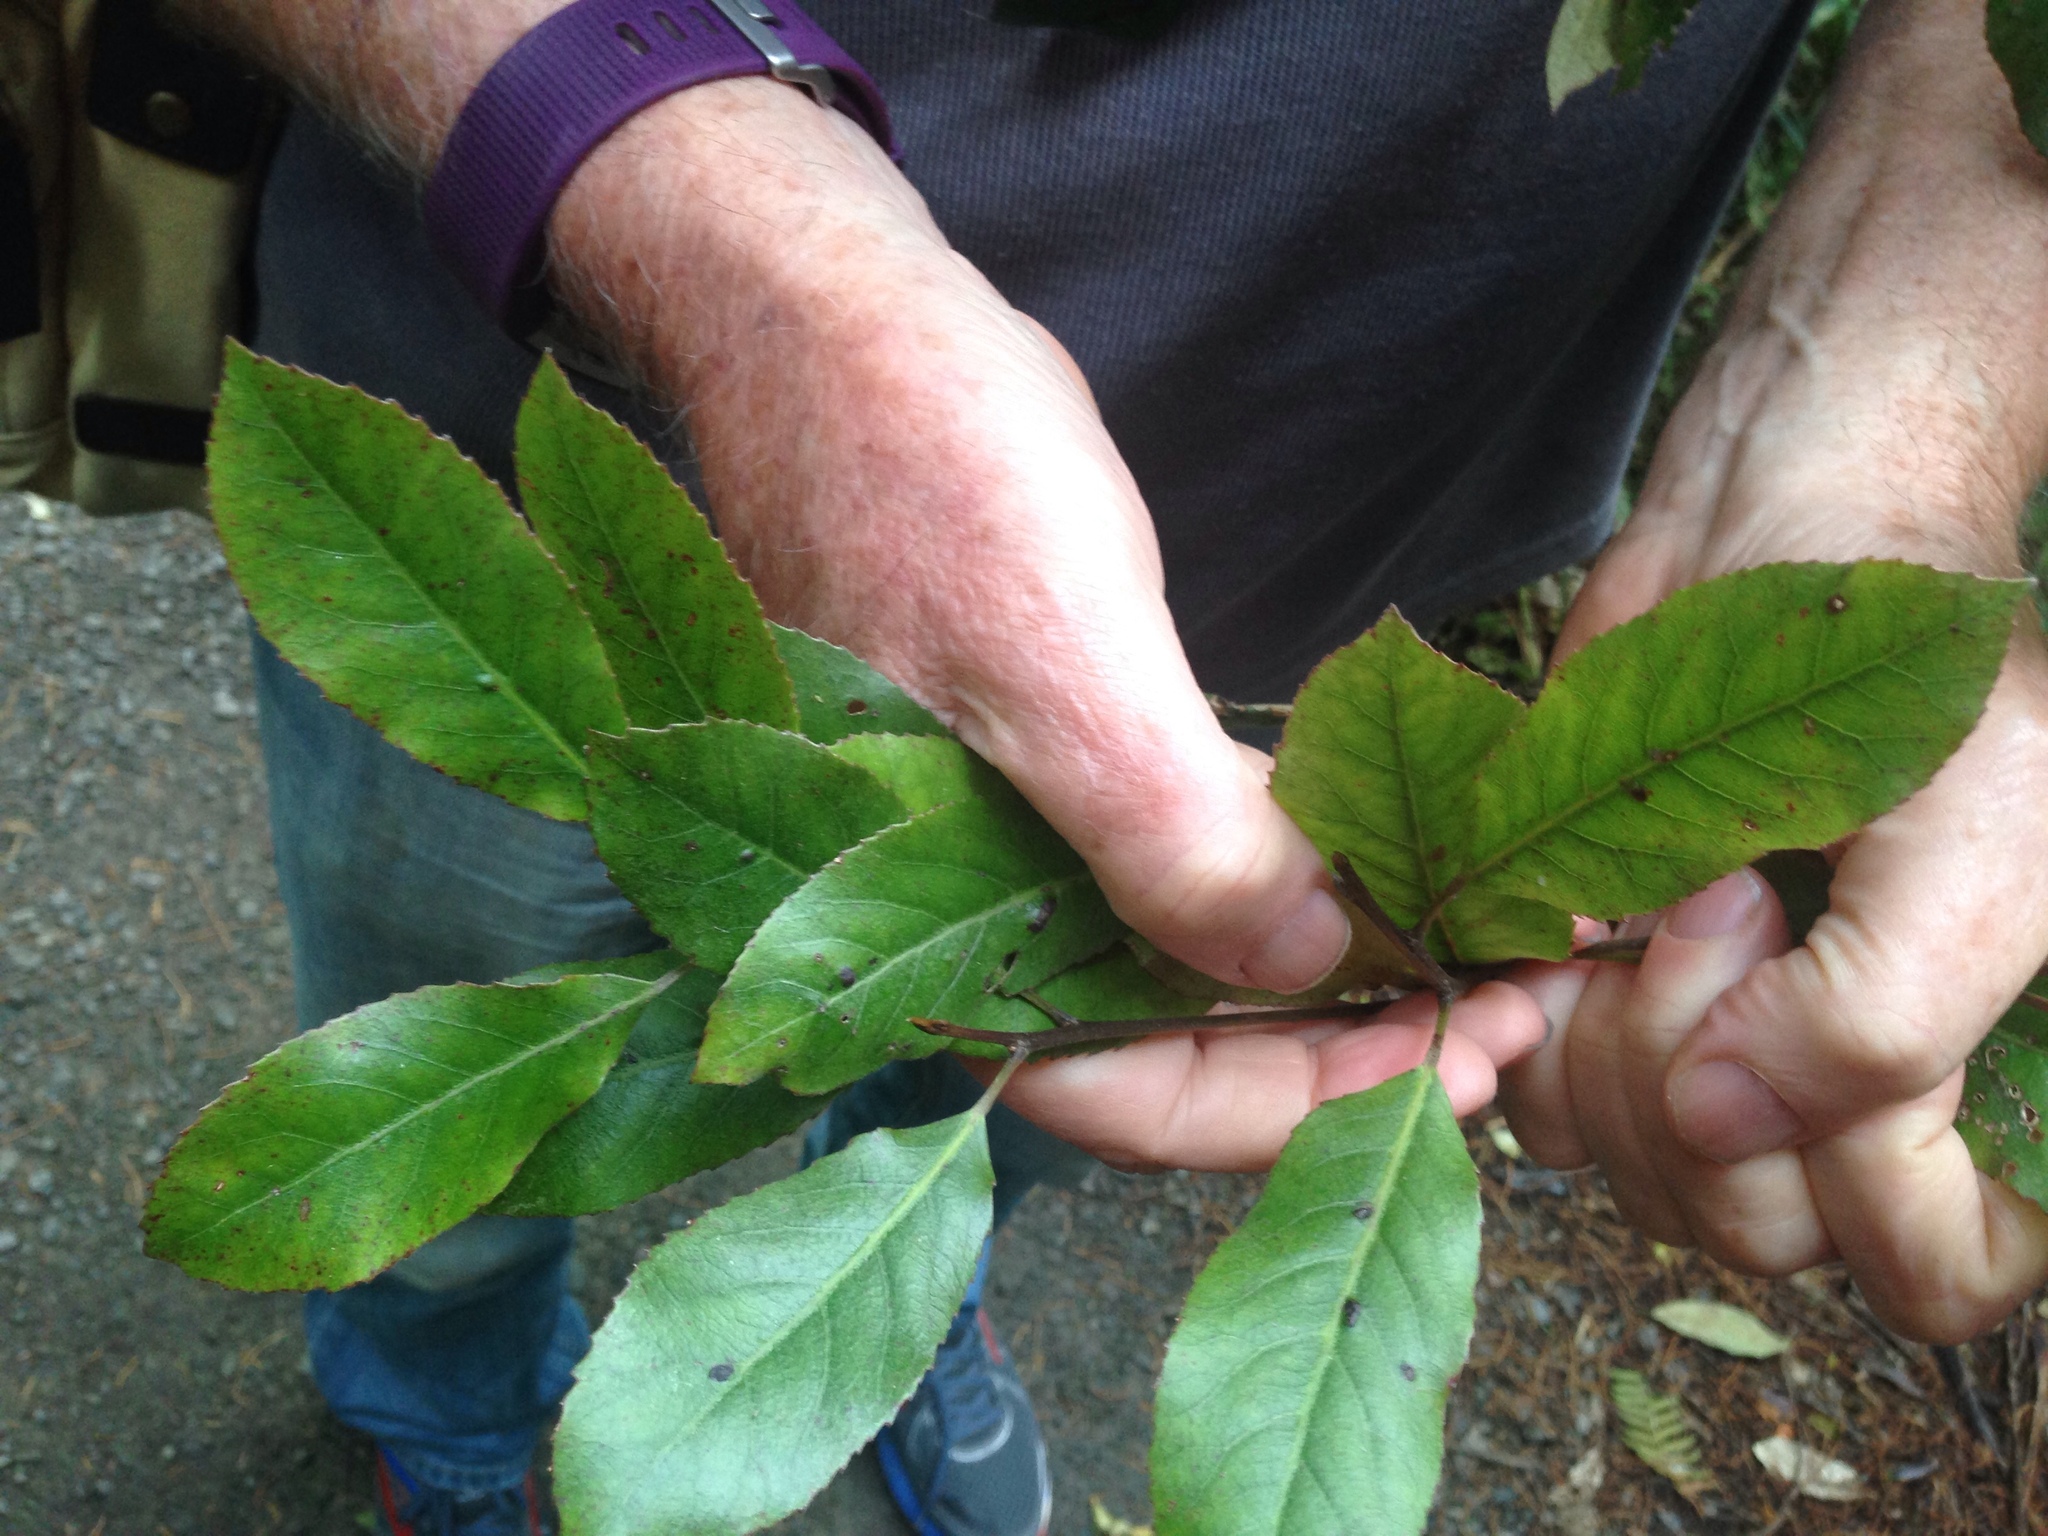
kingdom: Plantae
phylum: Tracheophyta
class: Magnoliopsida
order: Oxalidales
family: Elaeocarpaceae
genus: Elaeocarpus
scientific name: Elaeocarpus dentatus
